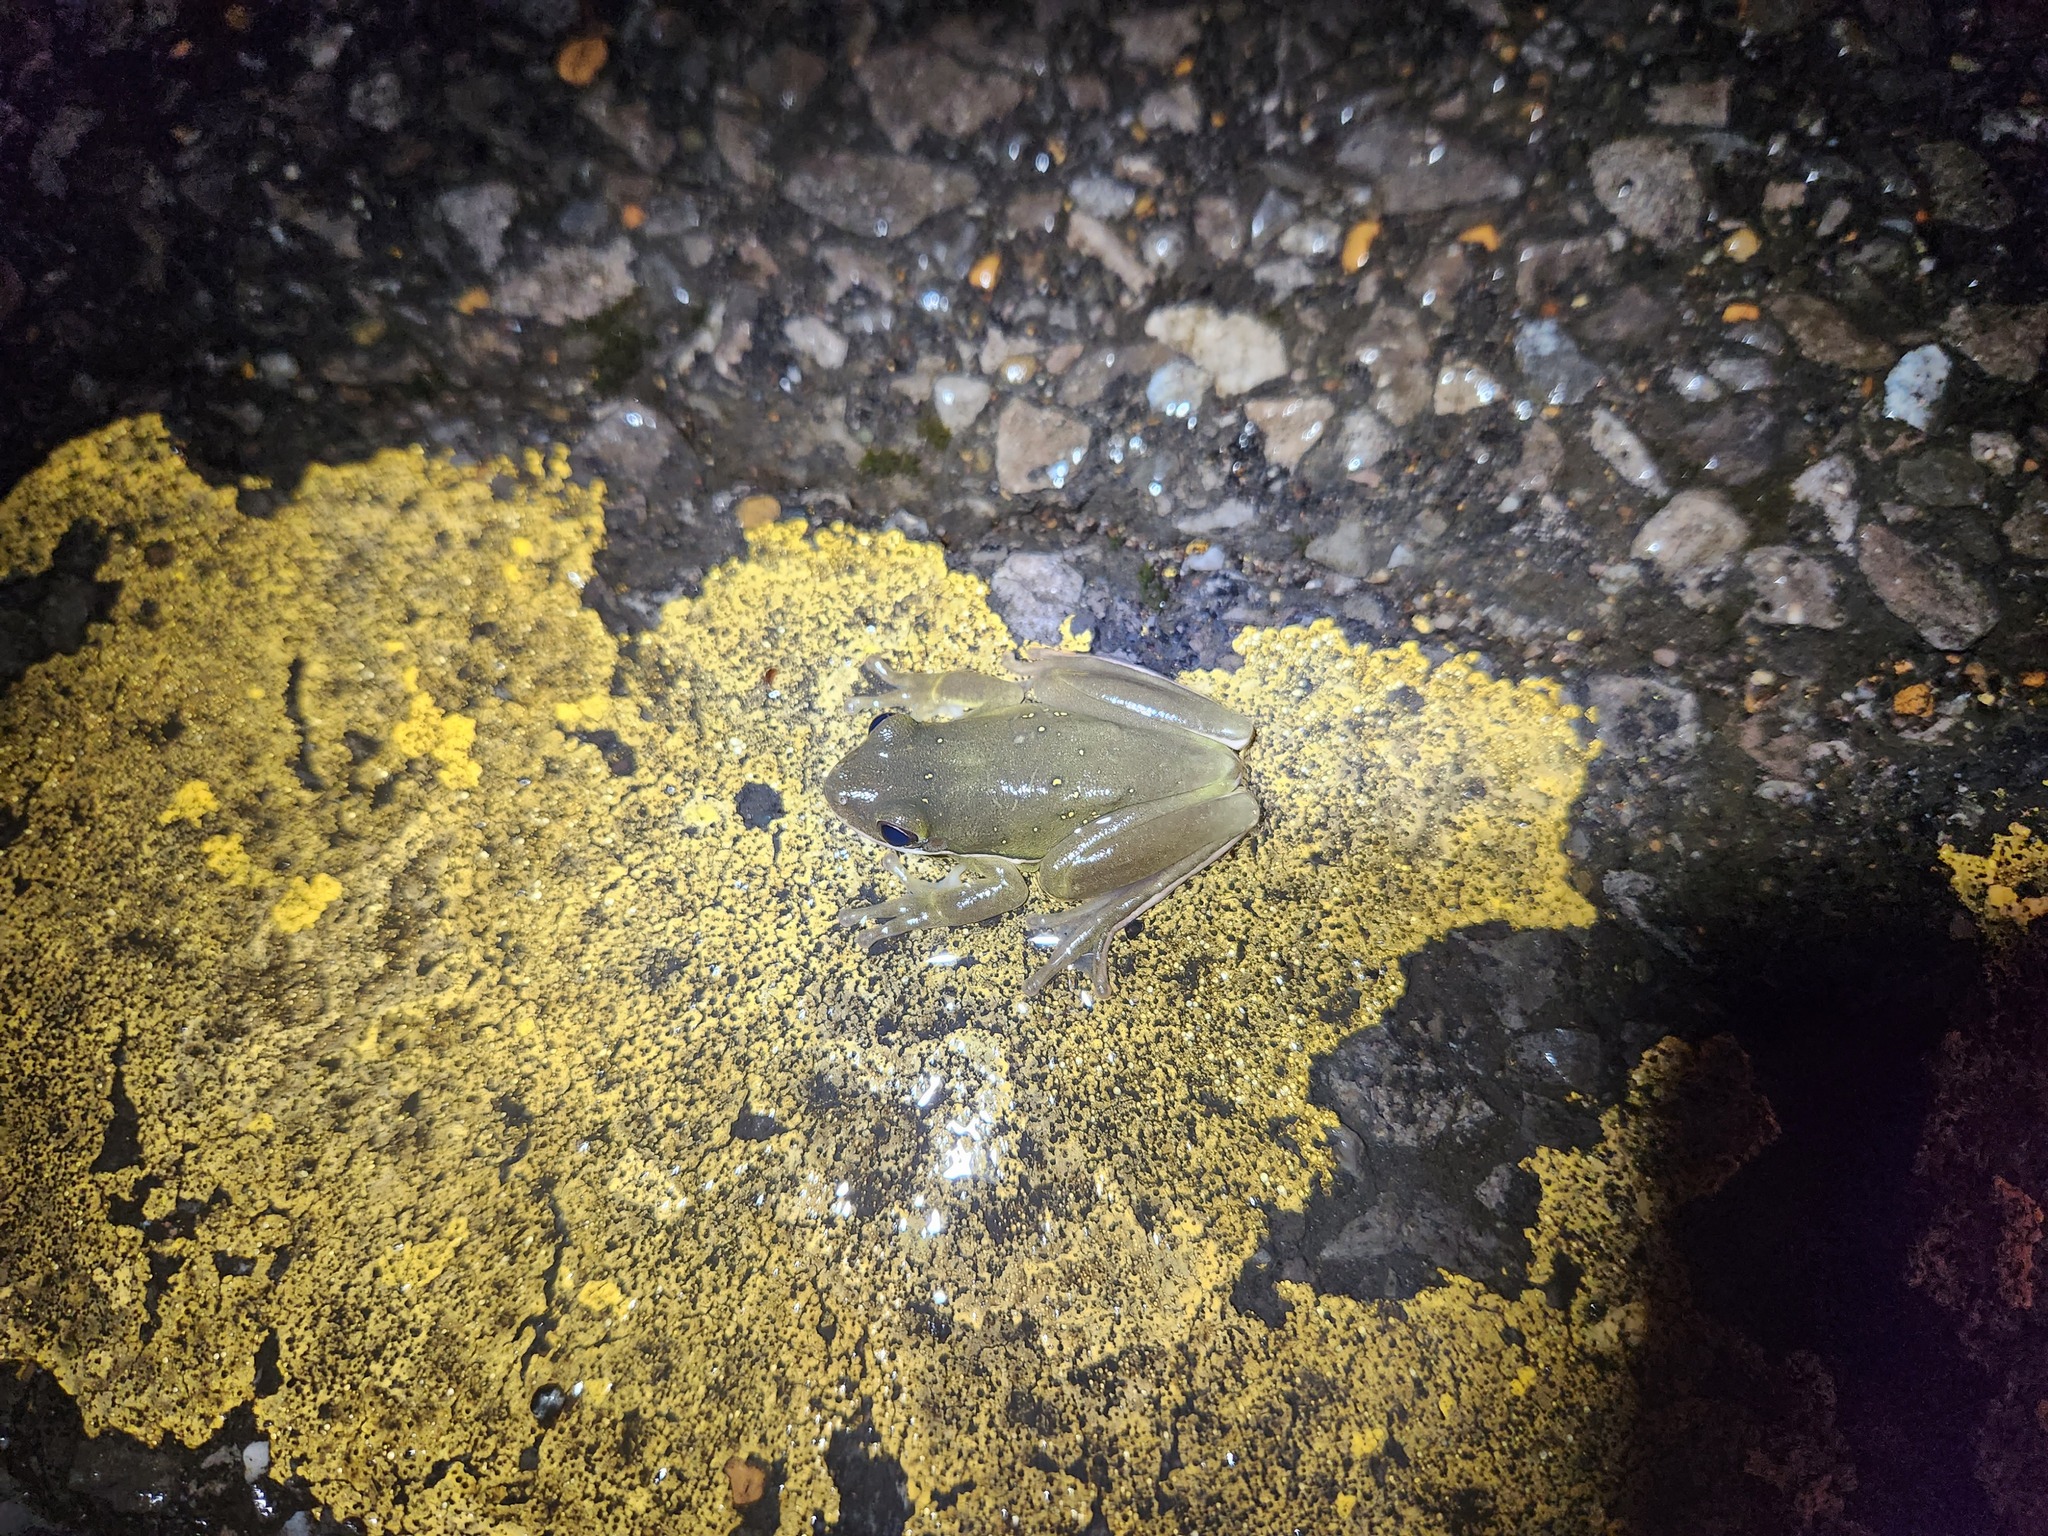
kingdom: Animalia
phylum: Chordata
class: Amphibia
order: Anura
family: Hylidae
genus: Dryophytes
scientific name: Dryophytes cinereus
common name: Green treefrog
